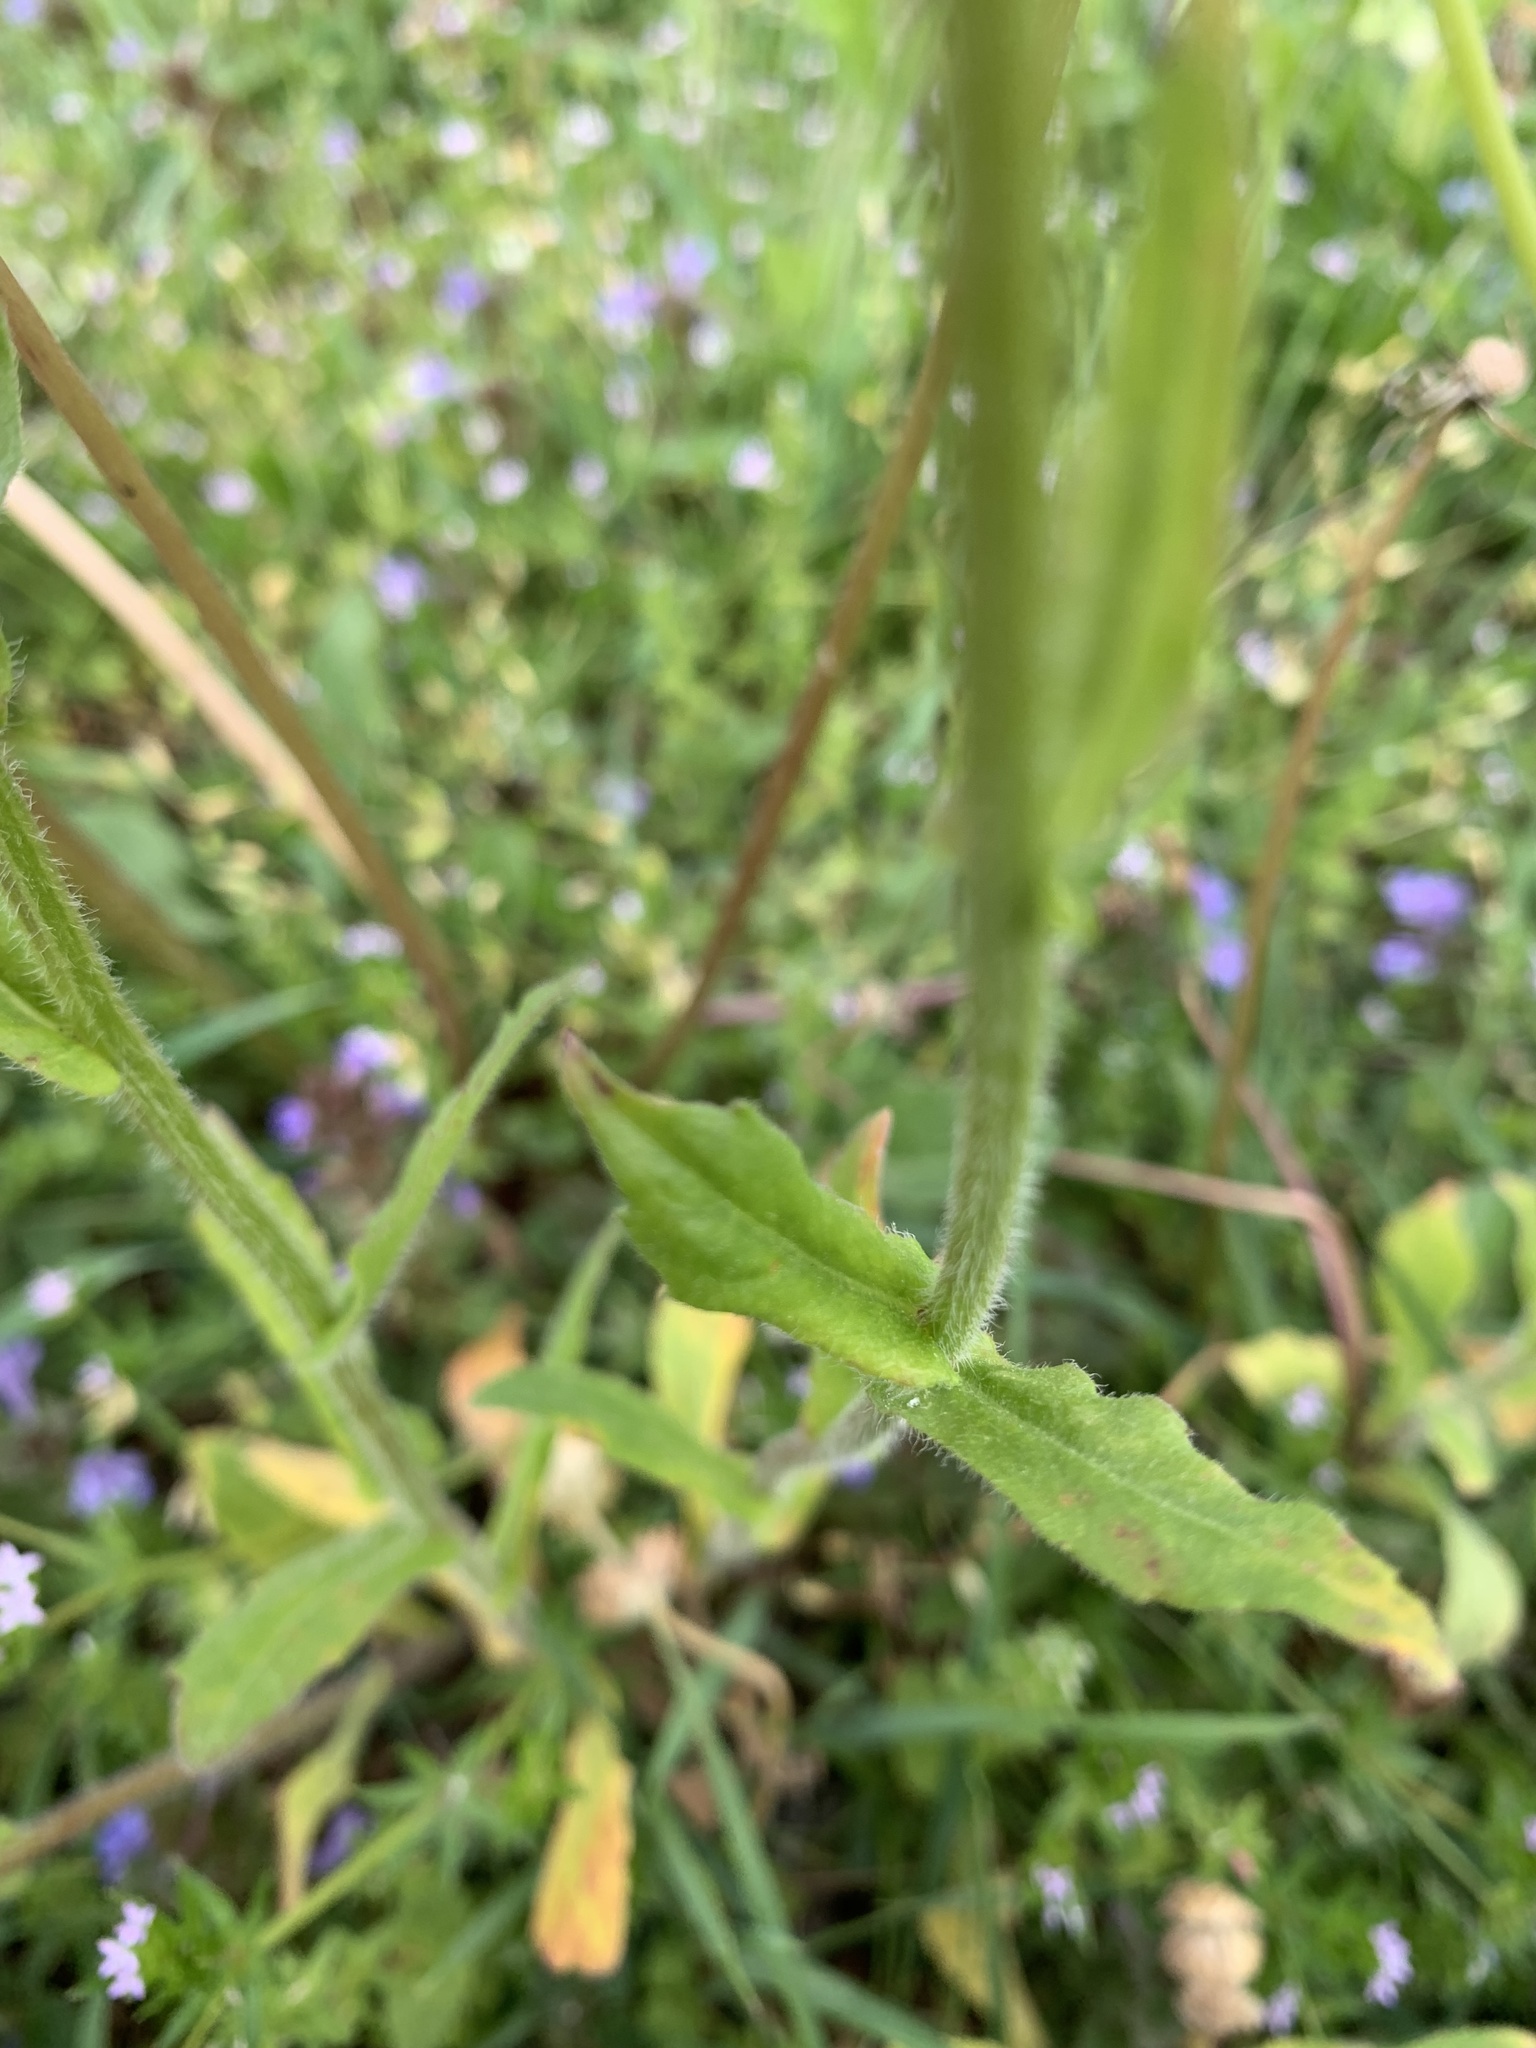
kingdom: Plantae
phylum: Tracheophyta
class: Magnoliopsida
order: Asterales
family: Asteraceae
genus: Erigeron
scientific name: Erigeron philadelphicus
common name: Robin's-plantain
